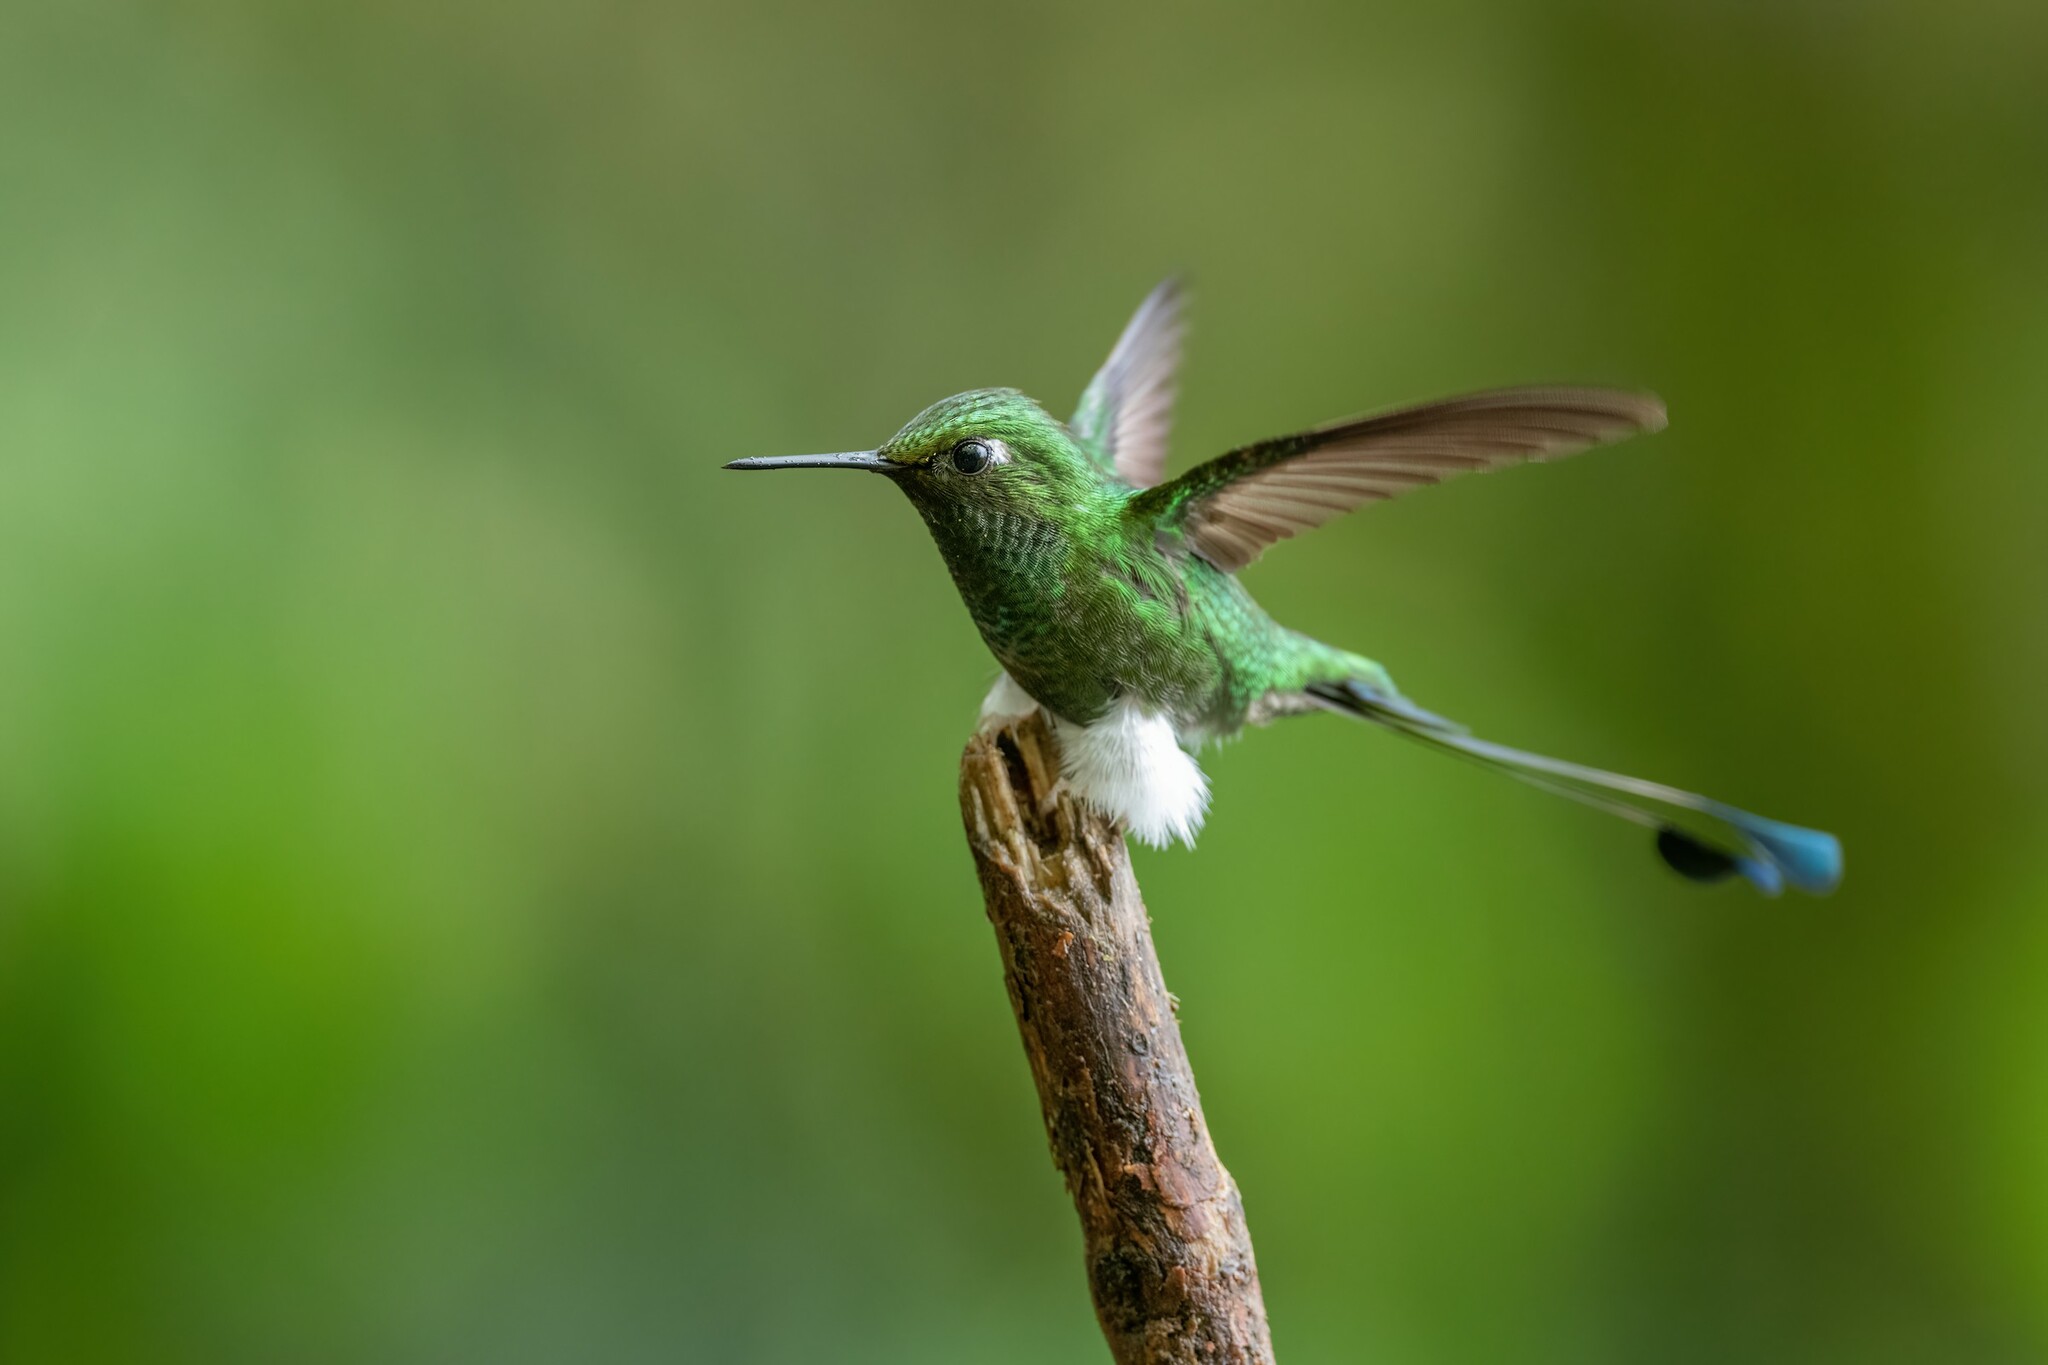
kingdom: Animalia
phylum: Chordata
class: Aves
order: Apodiformes
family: Trochilidae
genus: Ocreatus
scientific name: Ocreatus underwoodii
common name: Booted racket-tail
